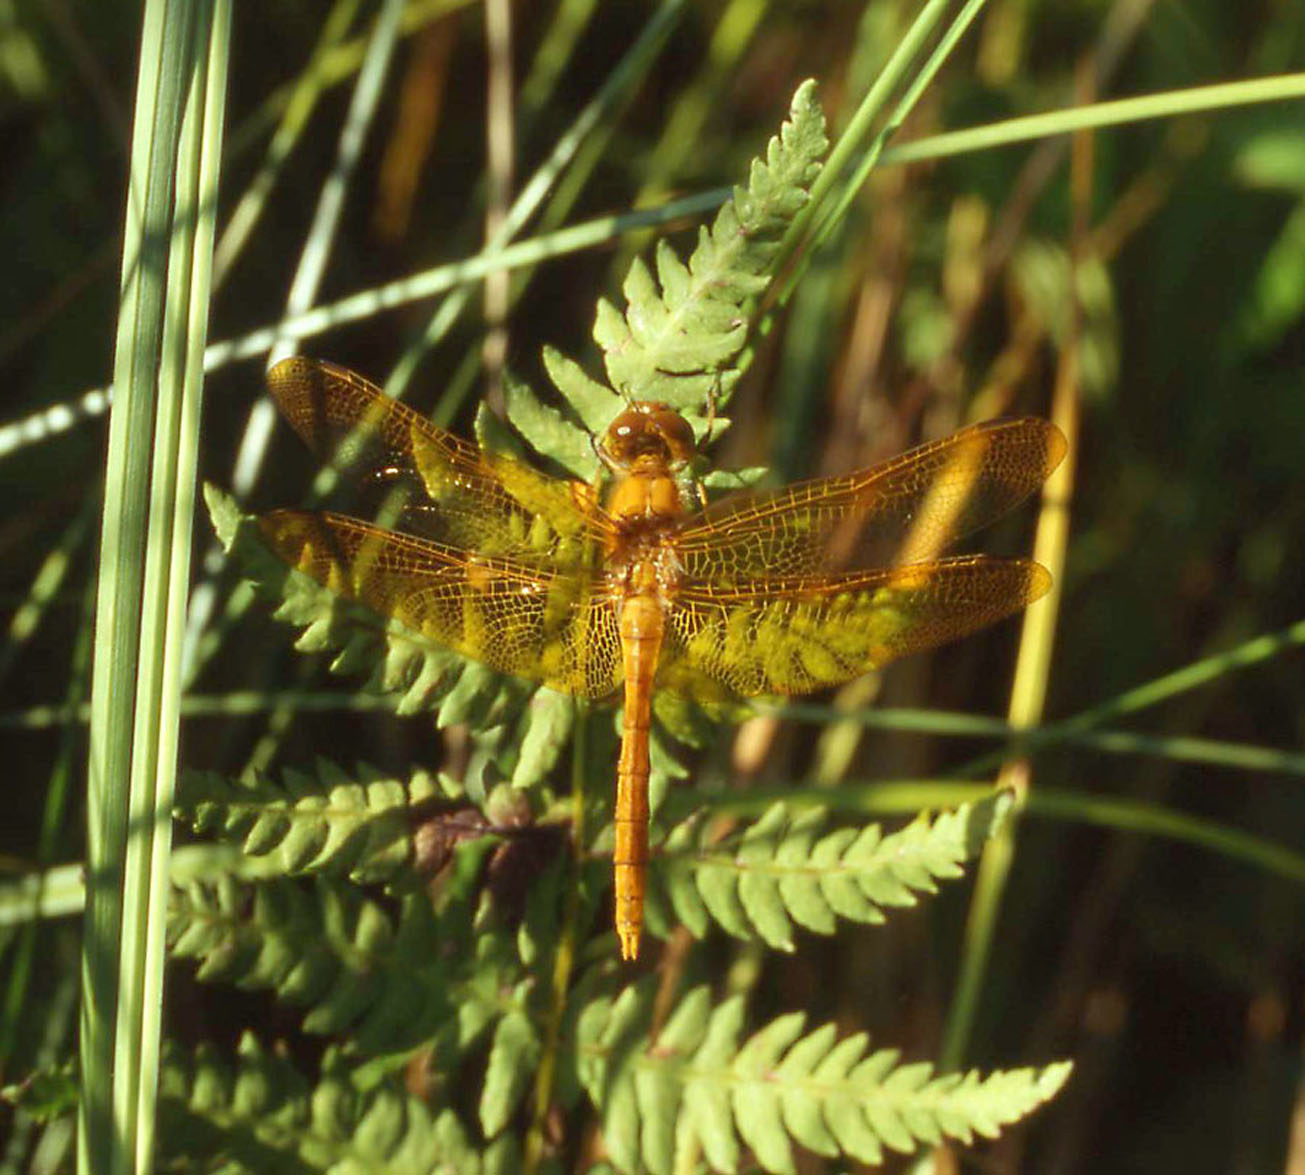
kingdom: Animalia
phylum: Arthropoda
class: Insecta
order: Odonata
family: Libellulidae
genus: Sympetrum
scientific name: Sympetrum croceolum
